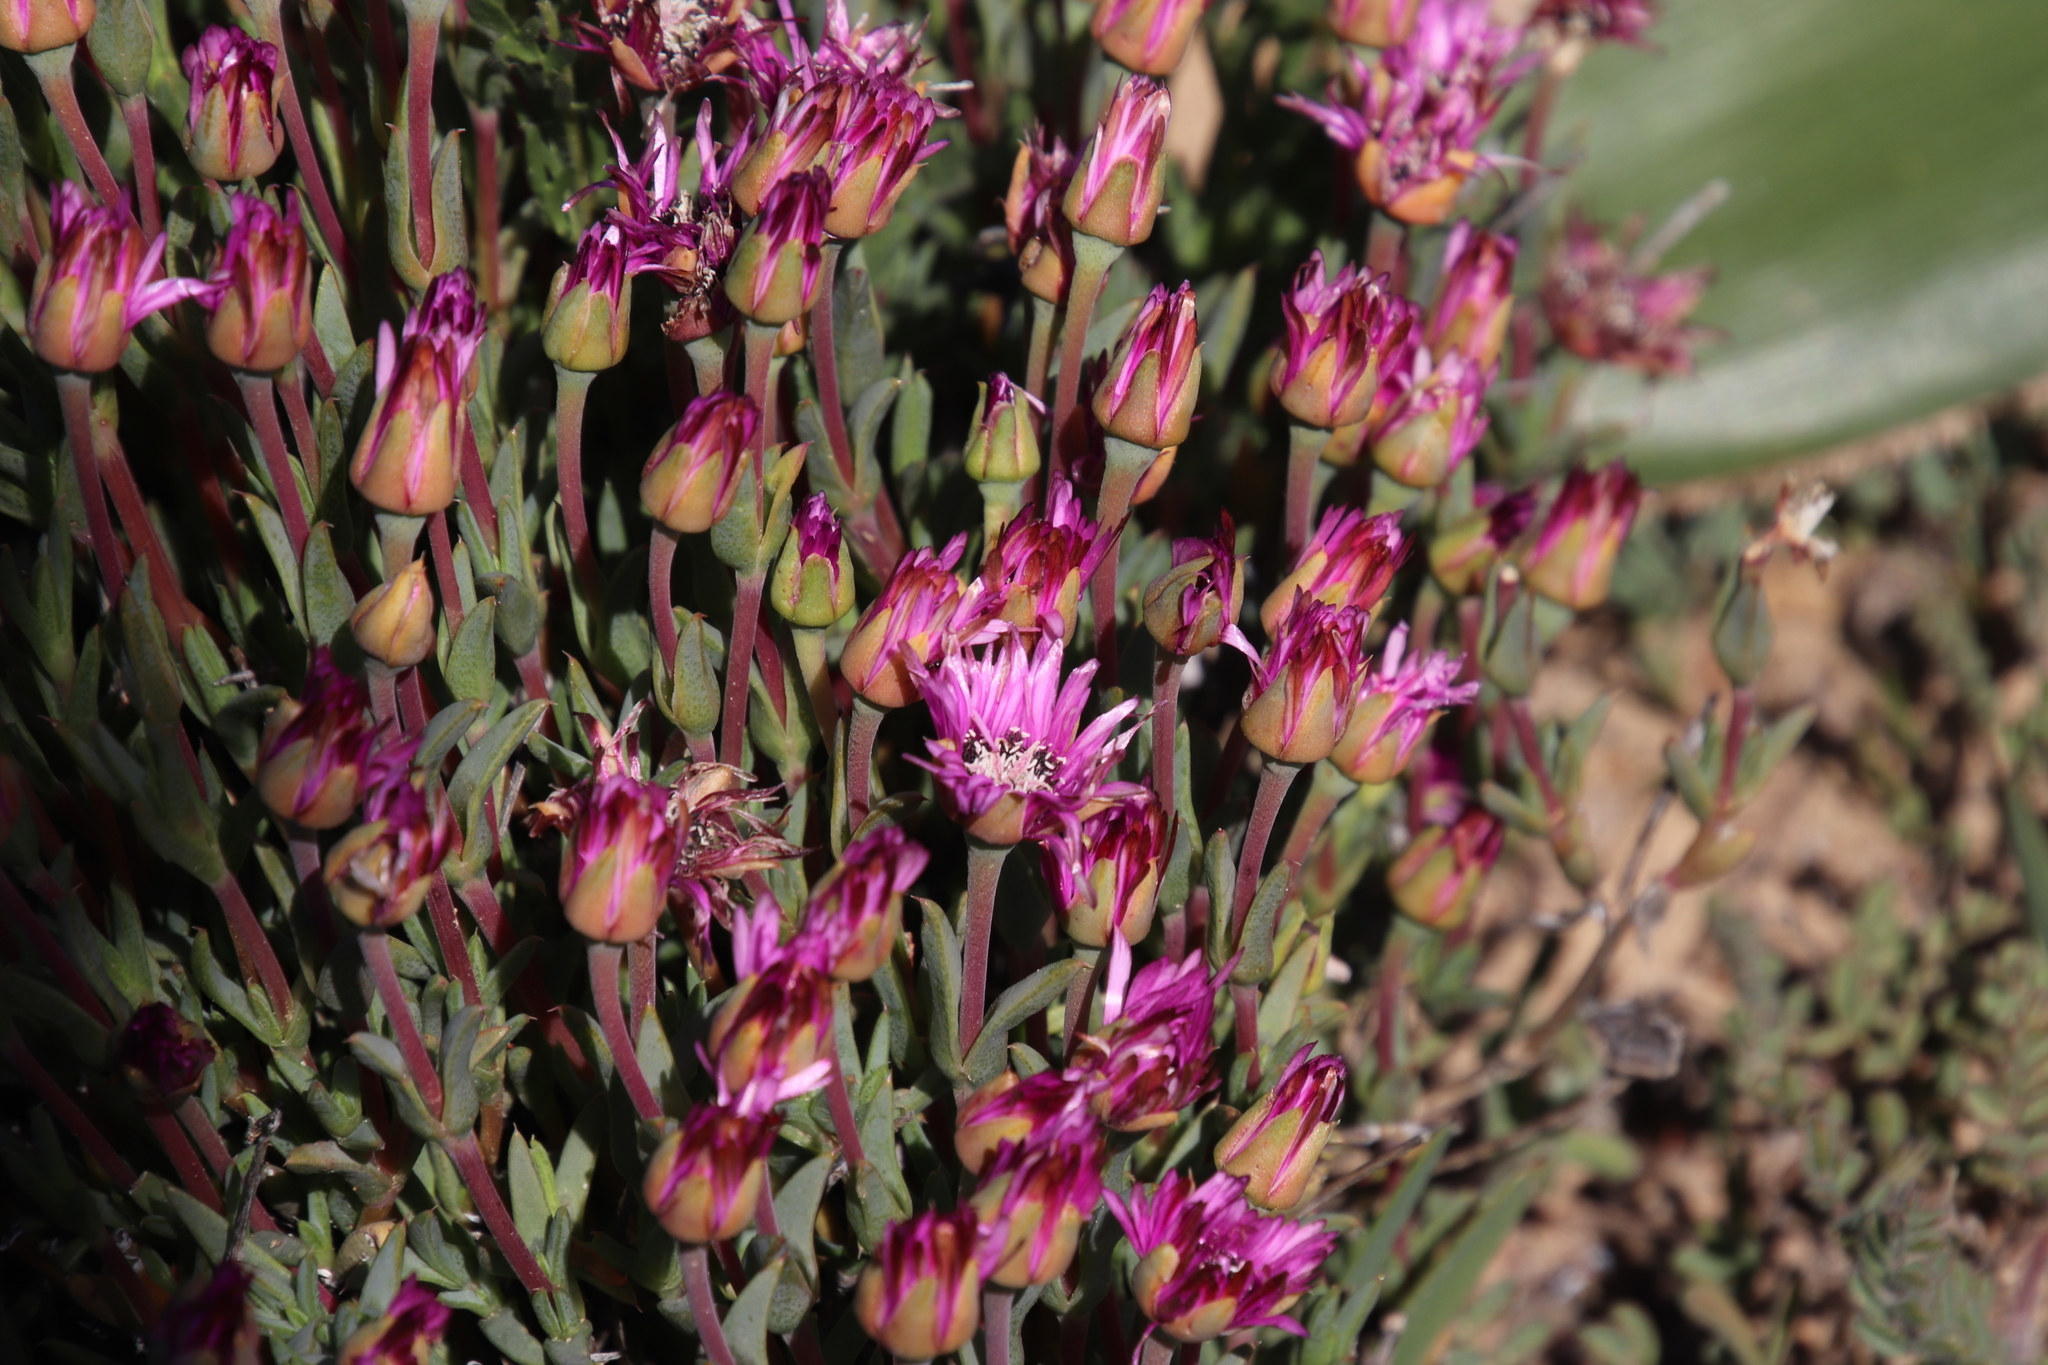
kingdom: Plantae
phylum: Tracheophyta
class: Magnoliopsida
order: Caryophyllales
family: Aizoaceae
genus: Antimima
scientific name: Antimima stayneri
